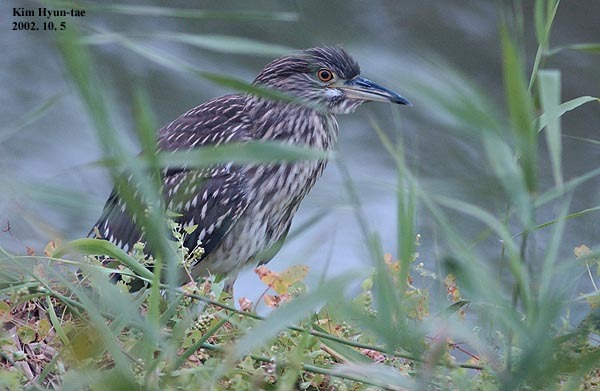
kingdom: Animalia
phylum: Chordata
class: Aves
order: Pelecaniformes
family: Ardeidae
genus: Nycticorax
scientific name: Nycticorax nycticorax
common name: Black-crowned night heron
